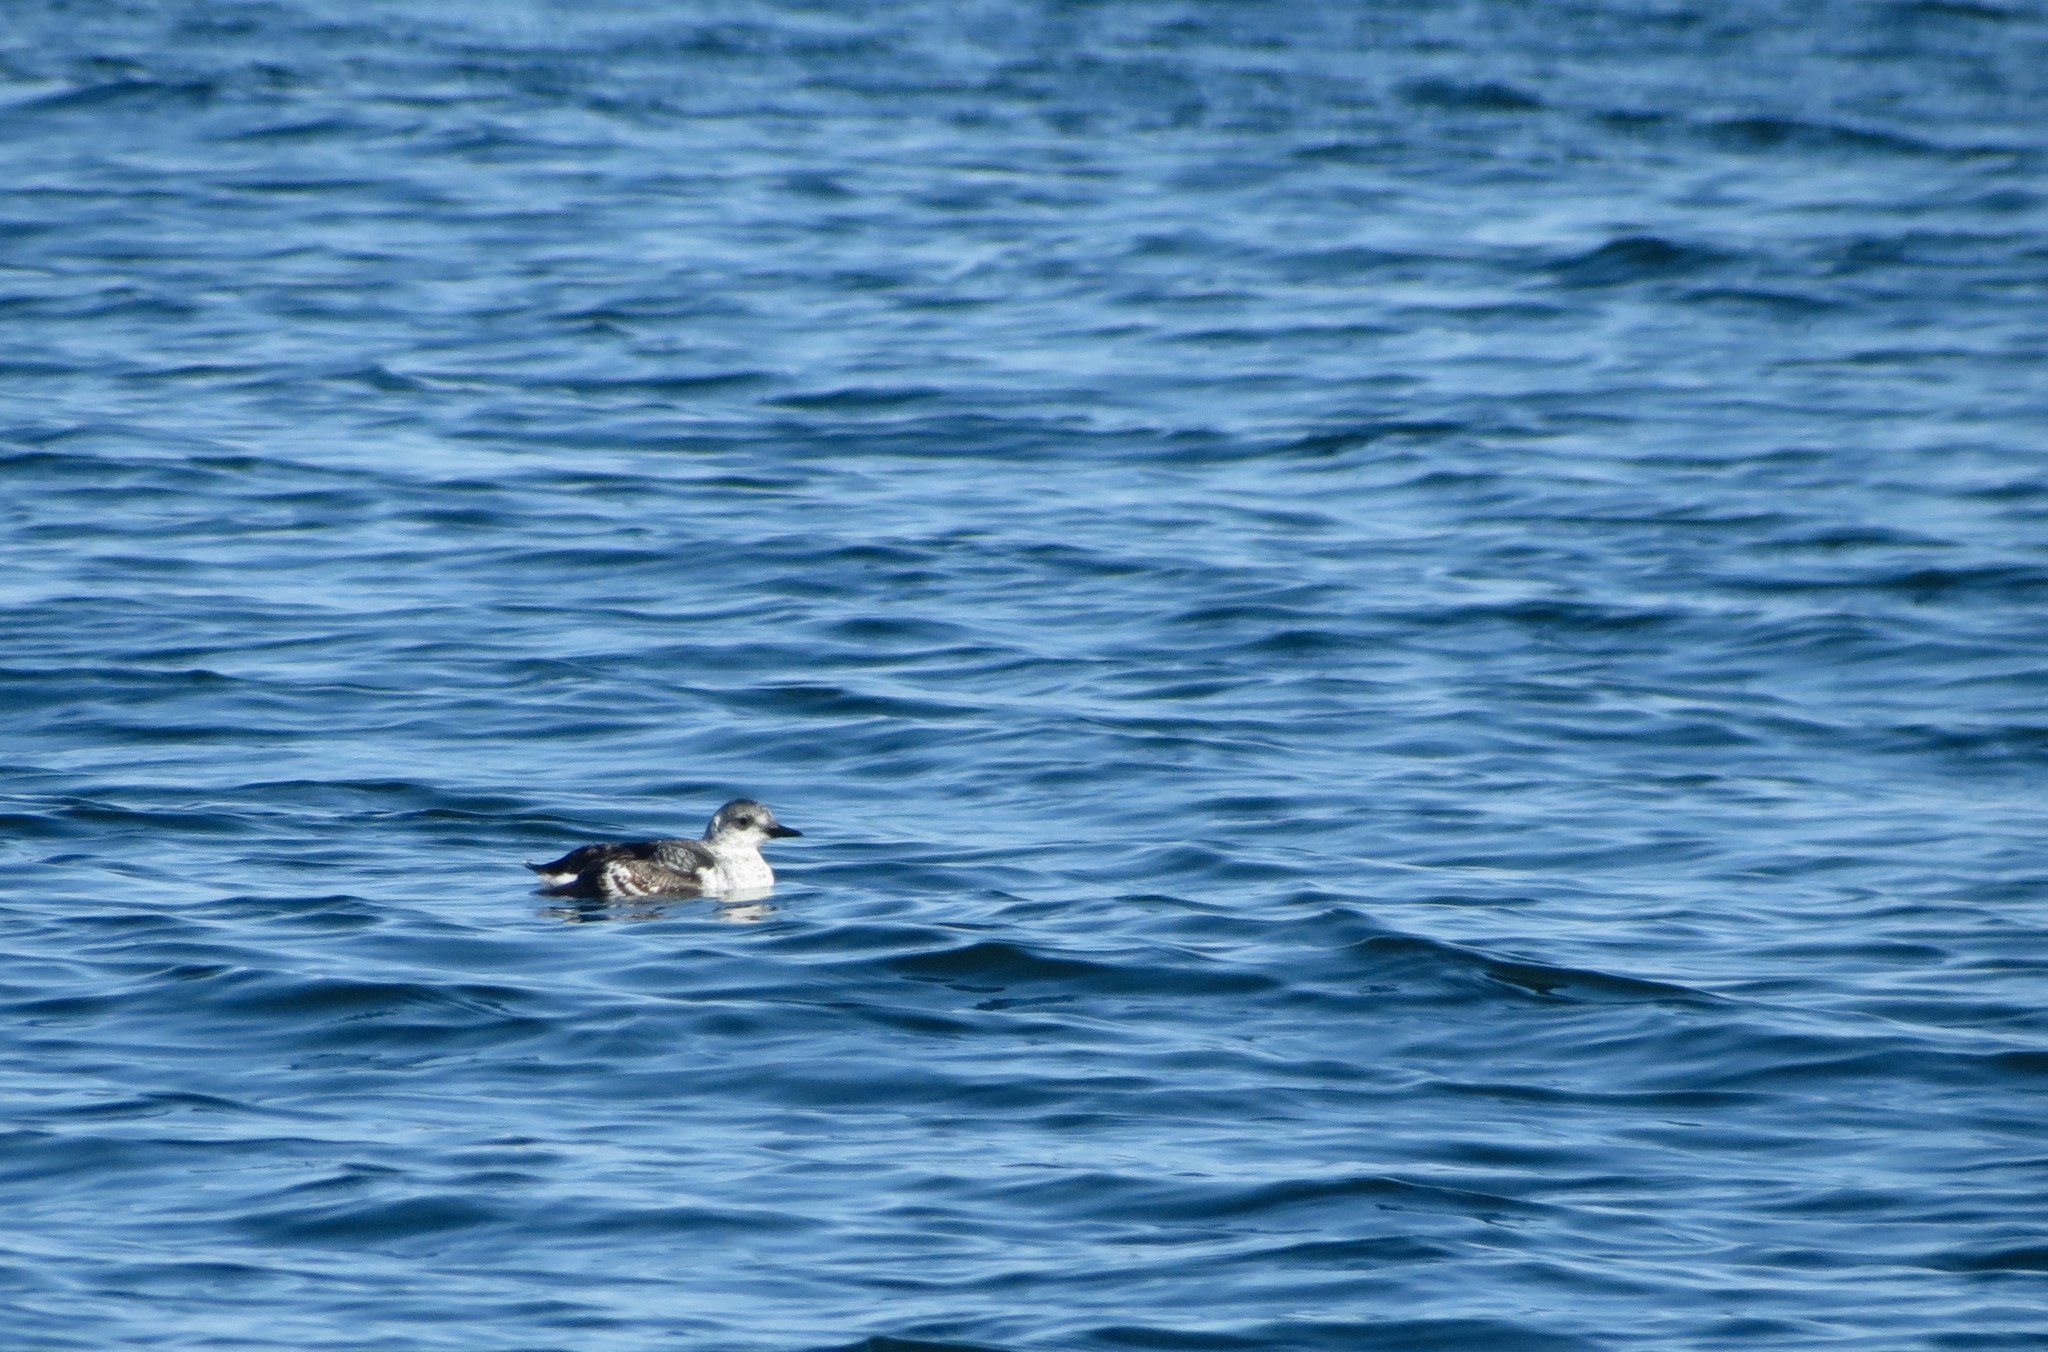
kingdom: Animalia
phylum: Chordata
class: Aves
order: Charadriiformes
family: Alcidae
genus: Cepphus
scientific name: Cepphus grylle
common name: Black guillemot
